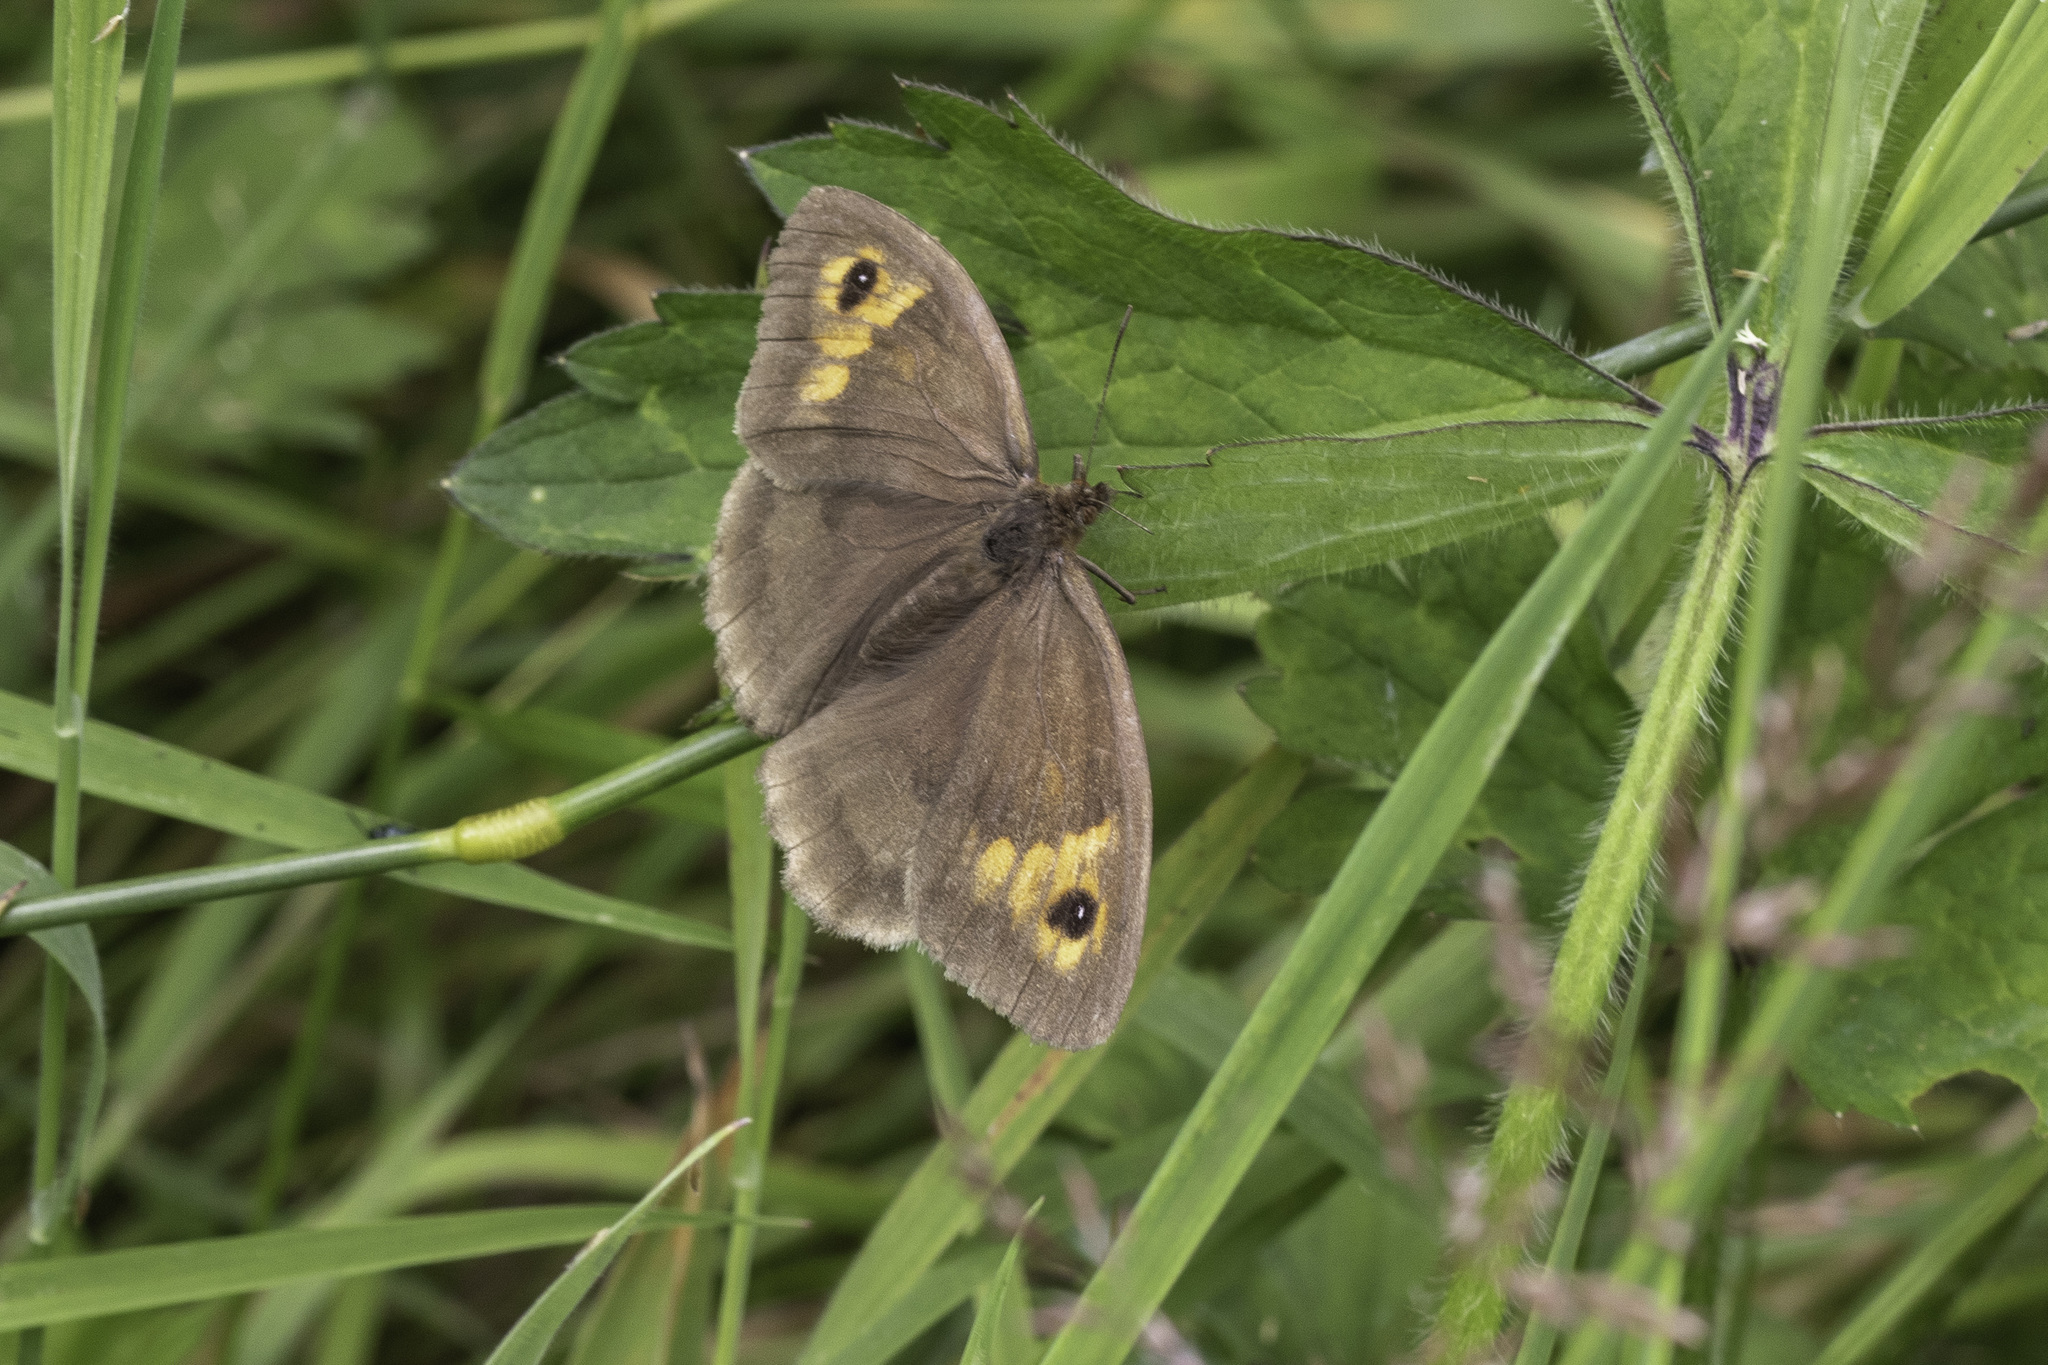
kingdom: Animalia
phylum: Arthropoda
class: Insecta
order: Lepidoptera
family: Nymphalidae
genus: Maniola
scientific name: Maniola jurtina
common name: Meadow brown
